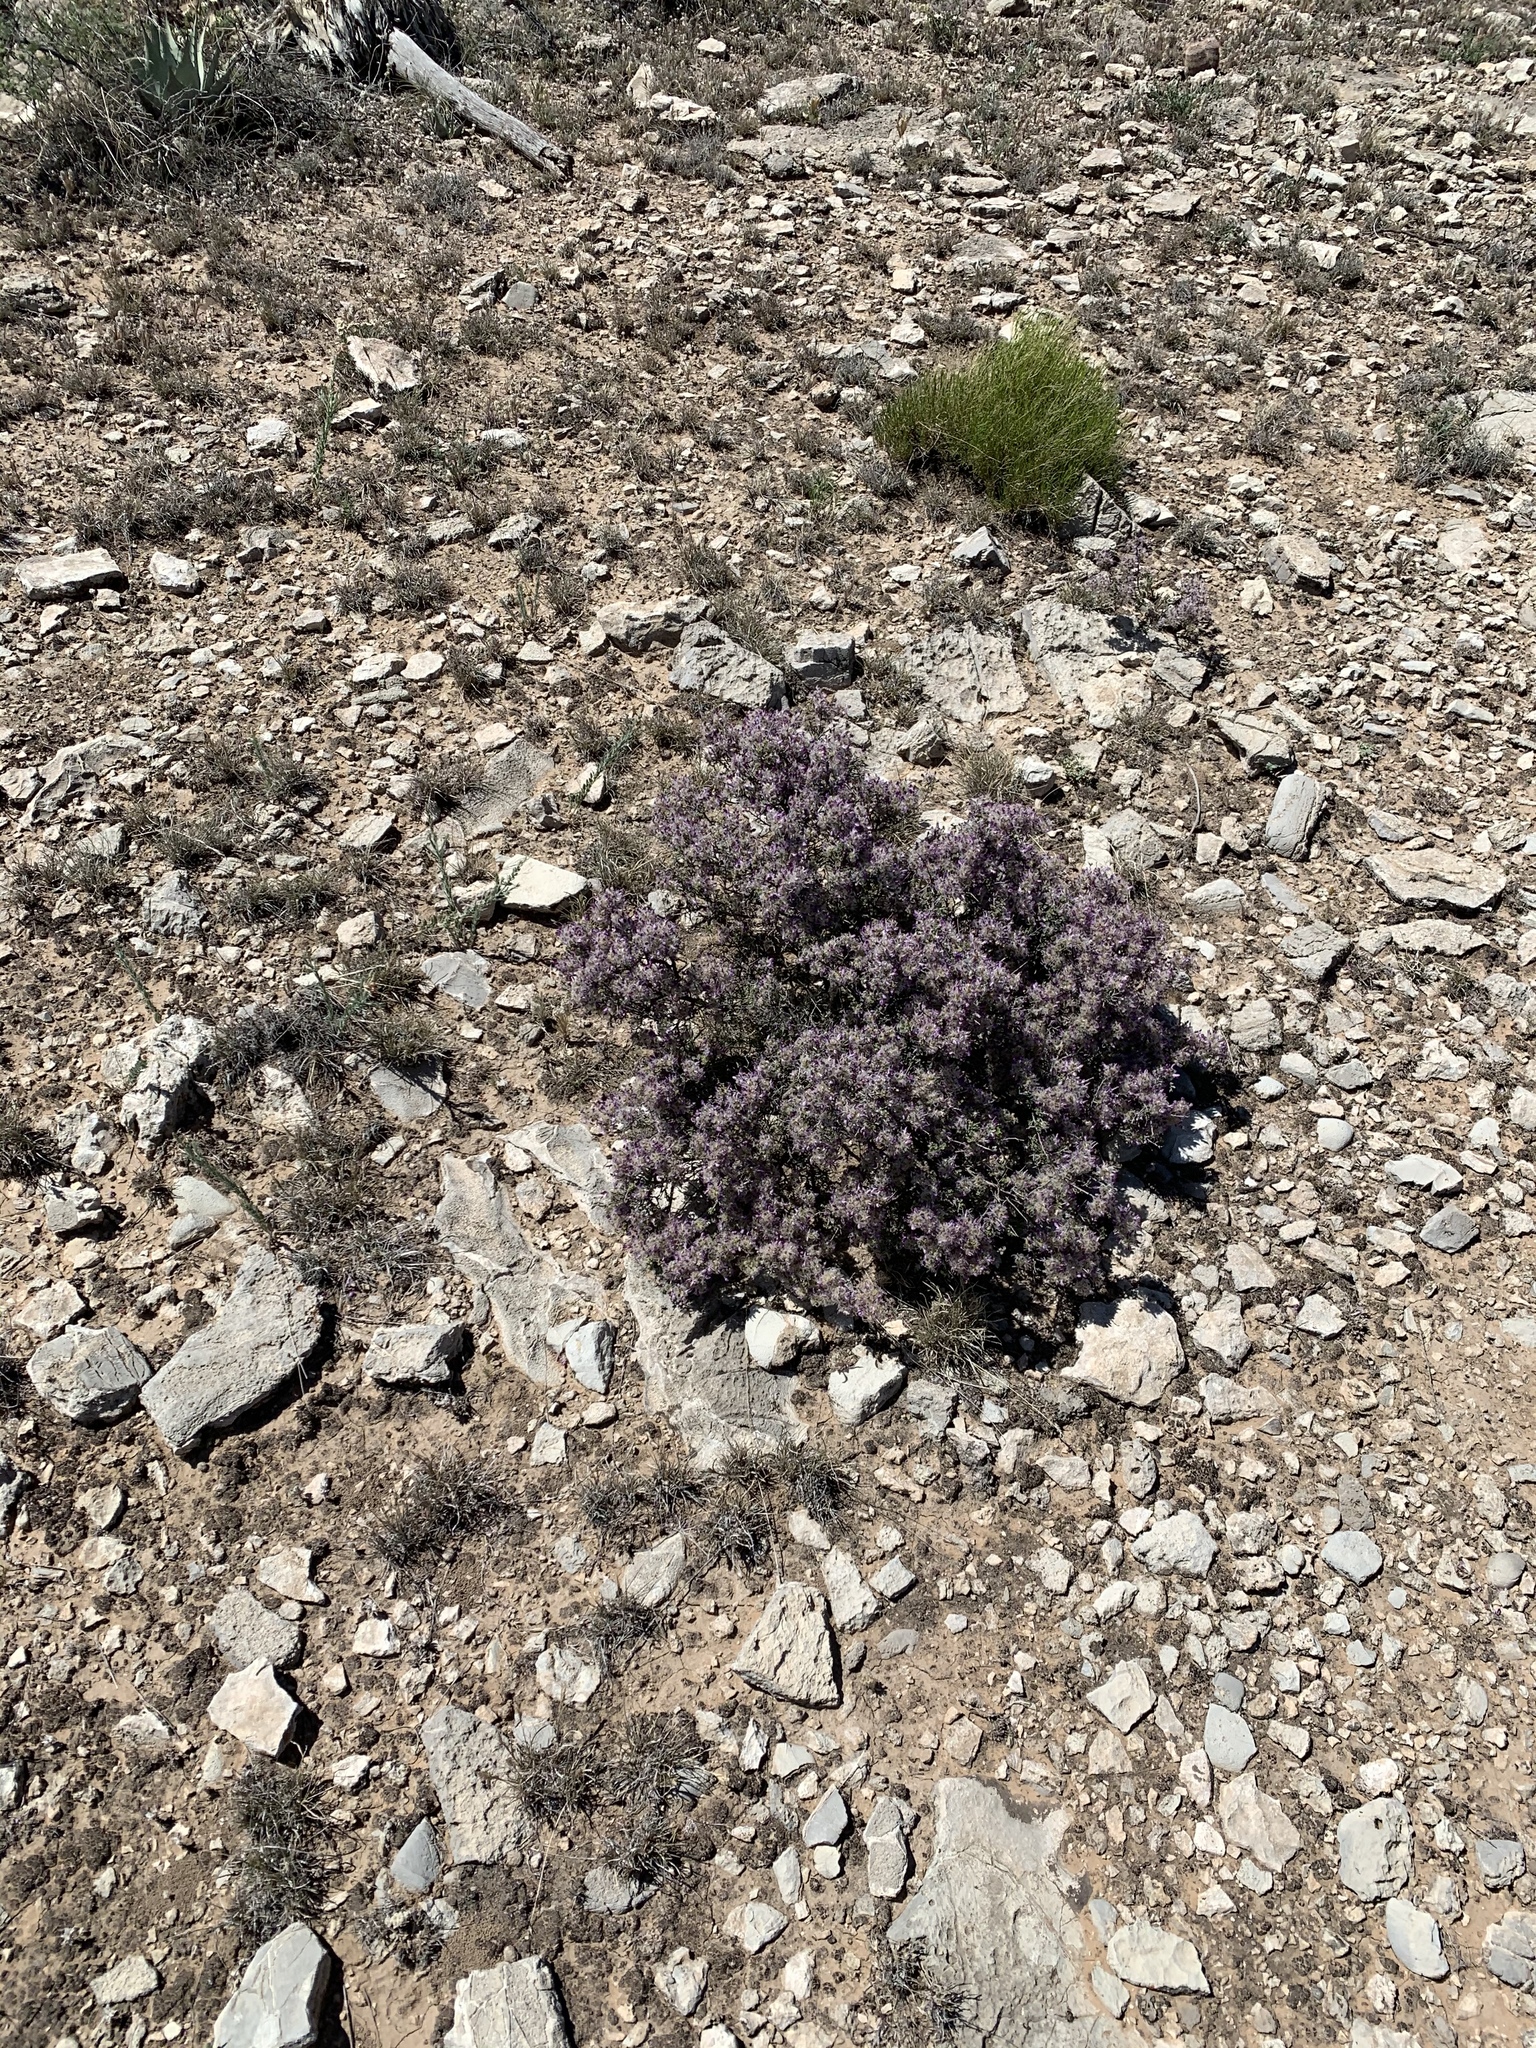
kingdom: Plantae
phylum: Tracheophyta
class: Magnoliopsida
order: Fabales
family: Fabaceae
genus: Dalea
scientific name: Dalea formosa
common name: Feather-plume dalea
